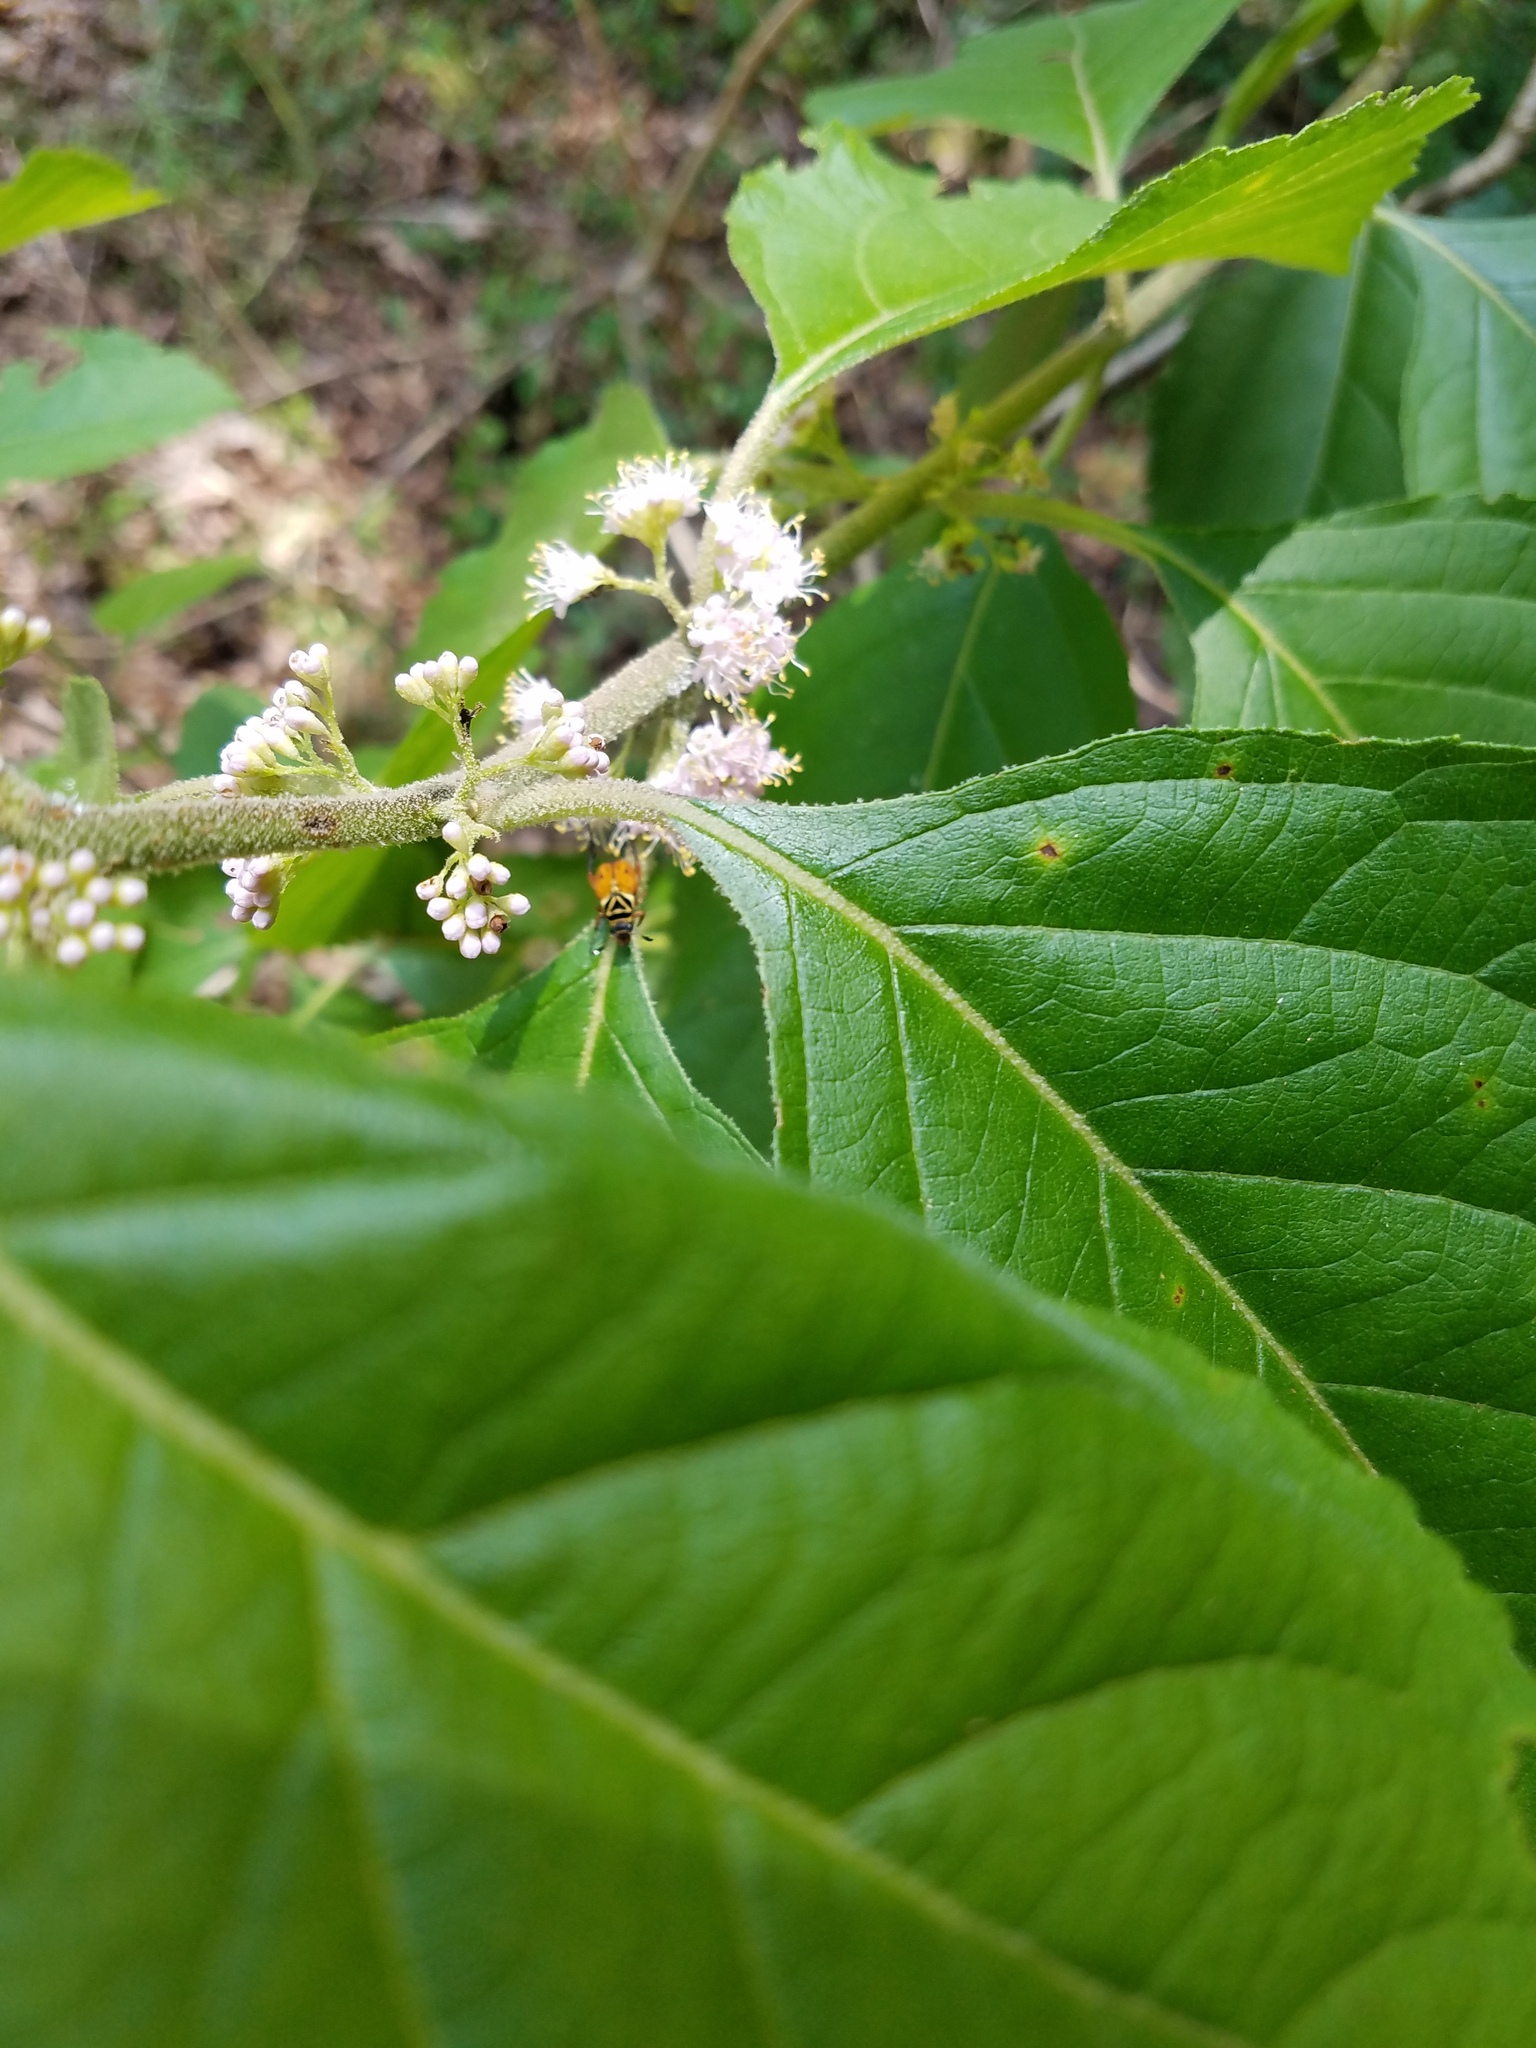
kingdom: Plantae
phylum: Tracheophyta
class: Magnoliopsida
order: Lamiales
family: Lamiaceae
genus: Callicarpa
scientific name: Callicarpa americana
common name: American beautyberry
